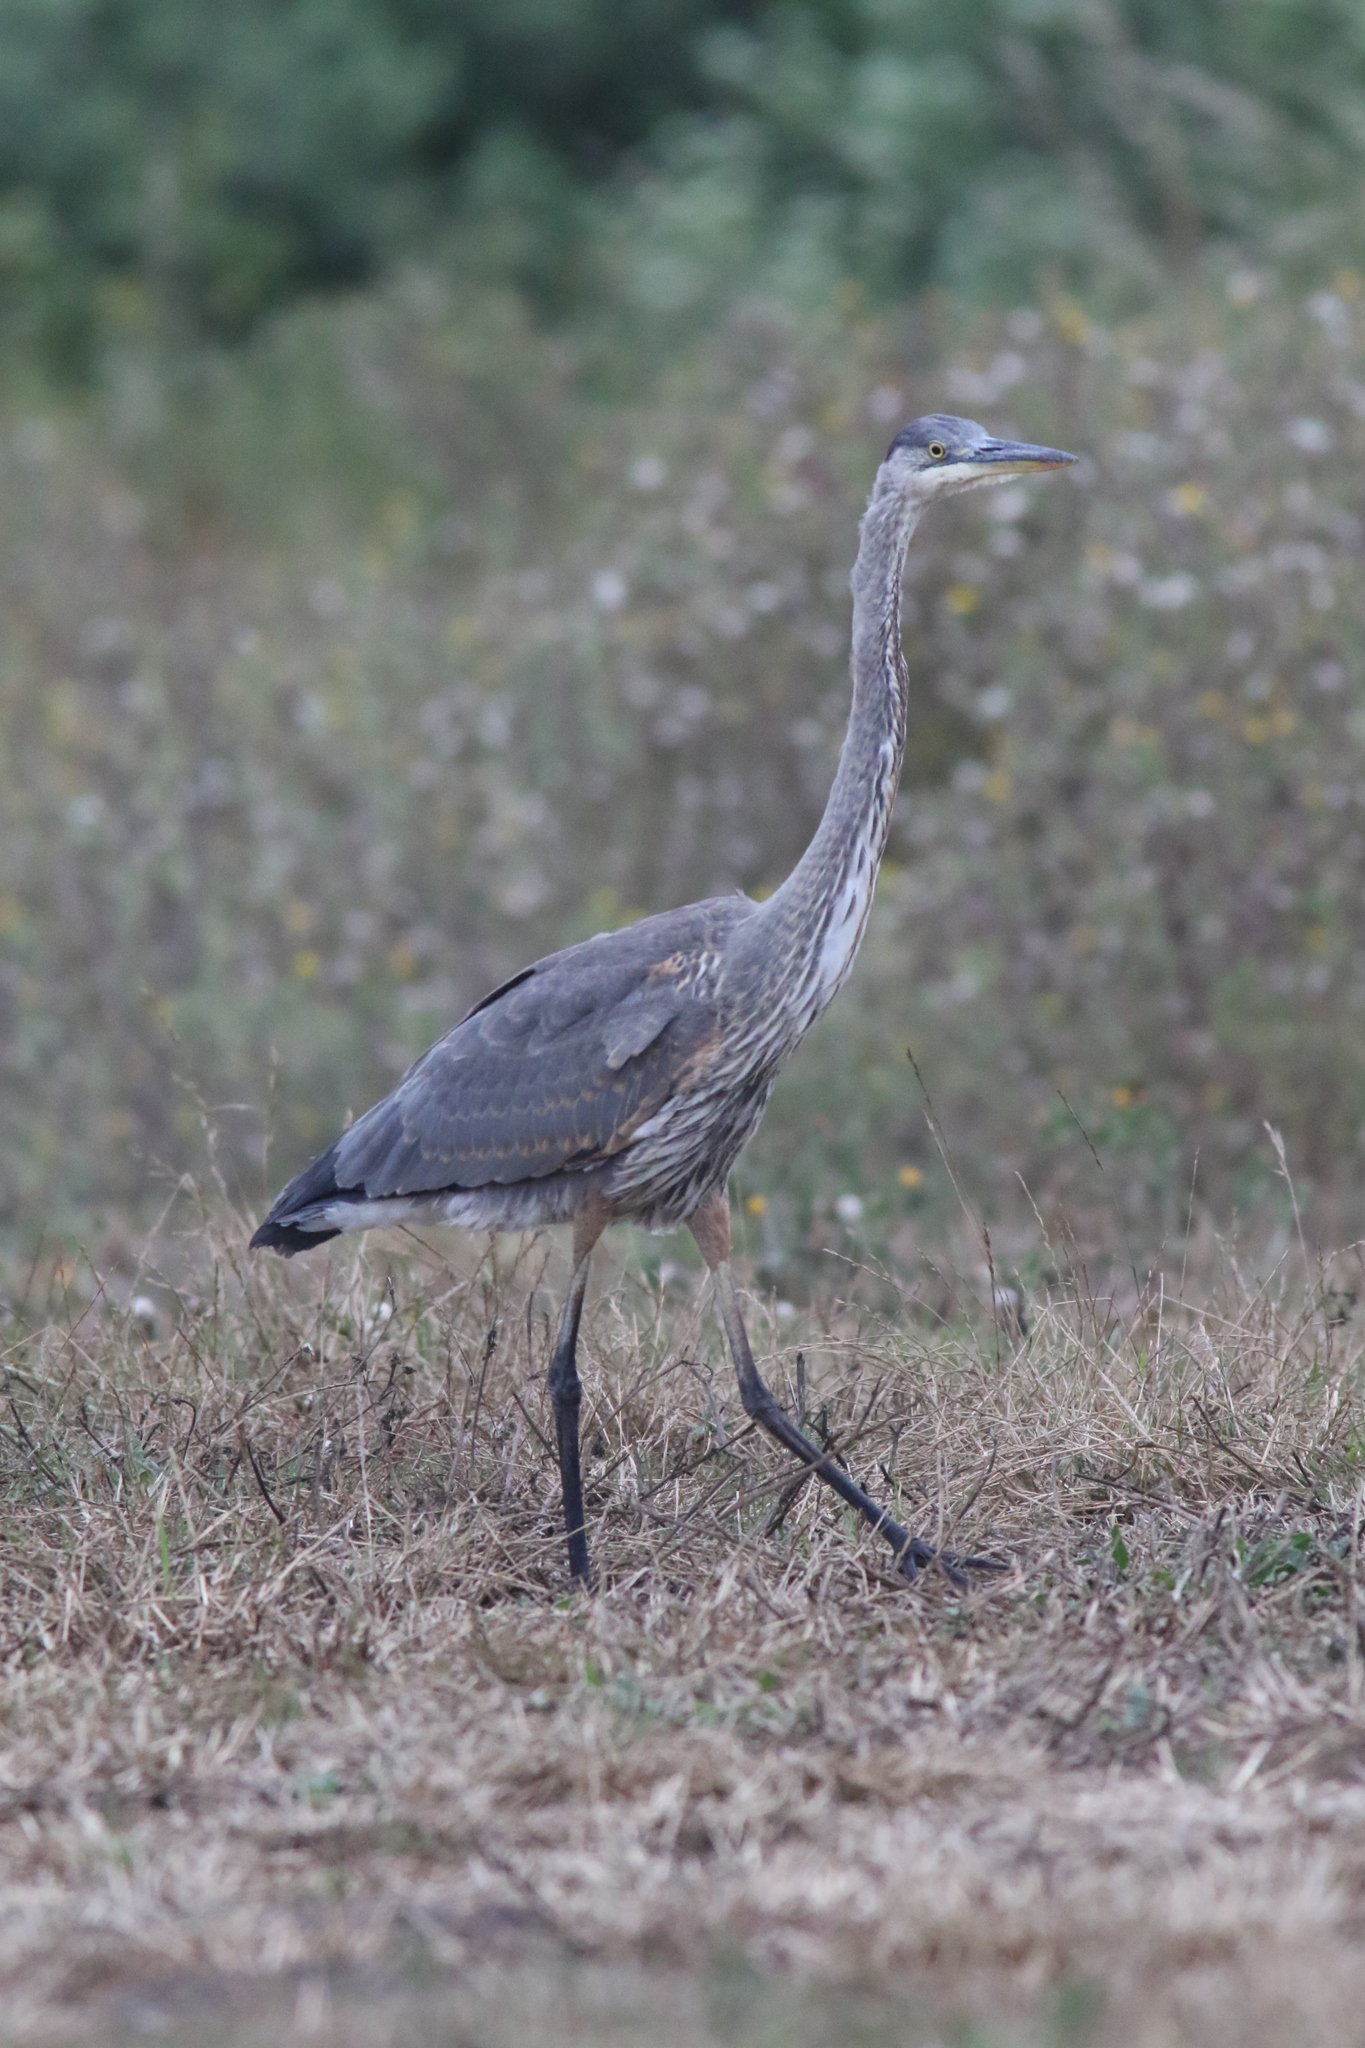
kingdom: Animalia
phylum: Chordata
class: Aves
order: Pelecaniformes
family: Ardeidae
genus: Ardea
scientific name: Ardea herodias
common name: Great blue heron
